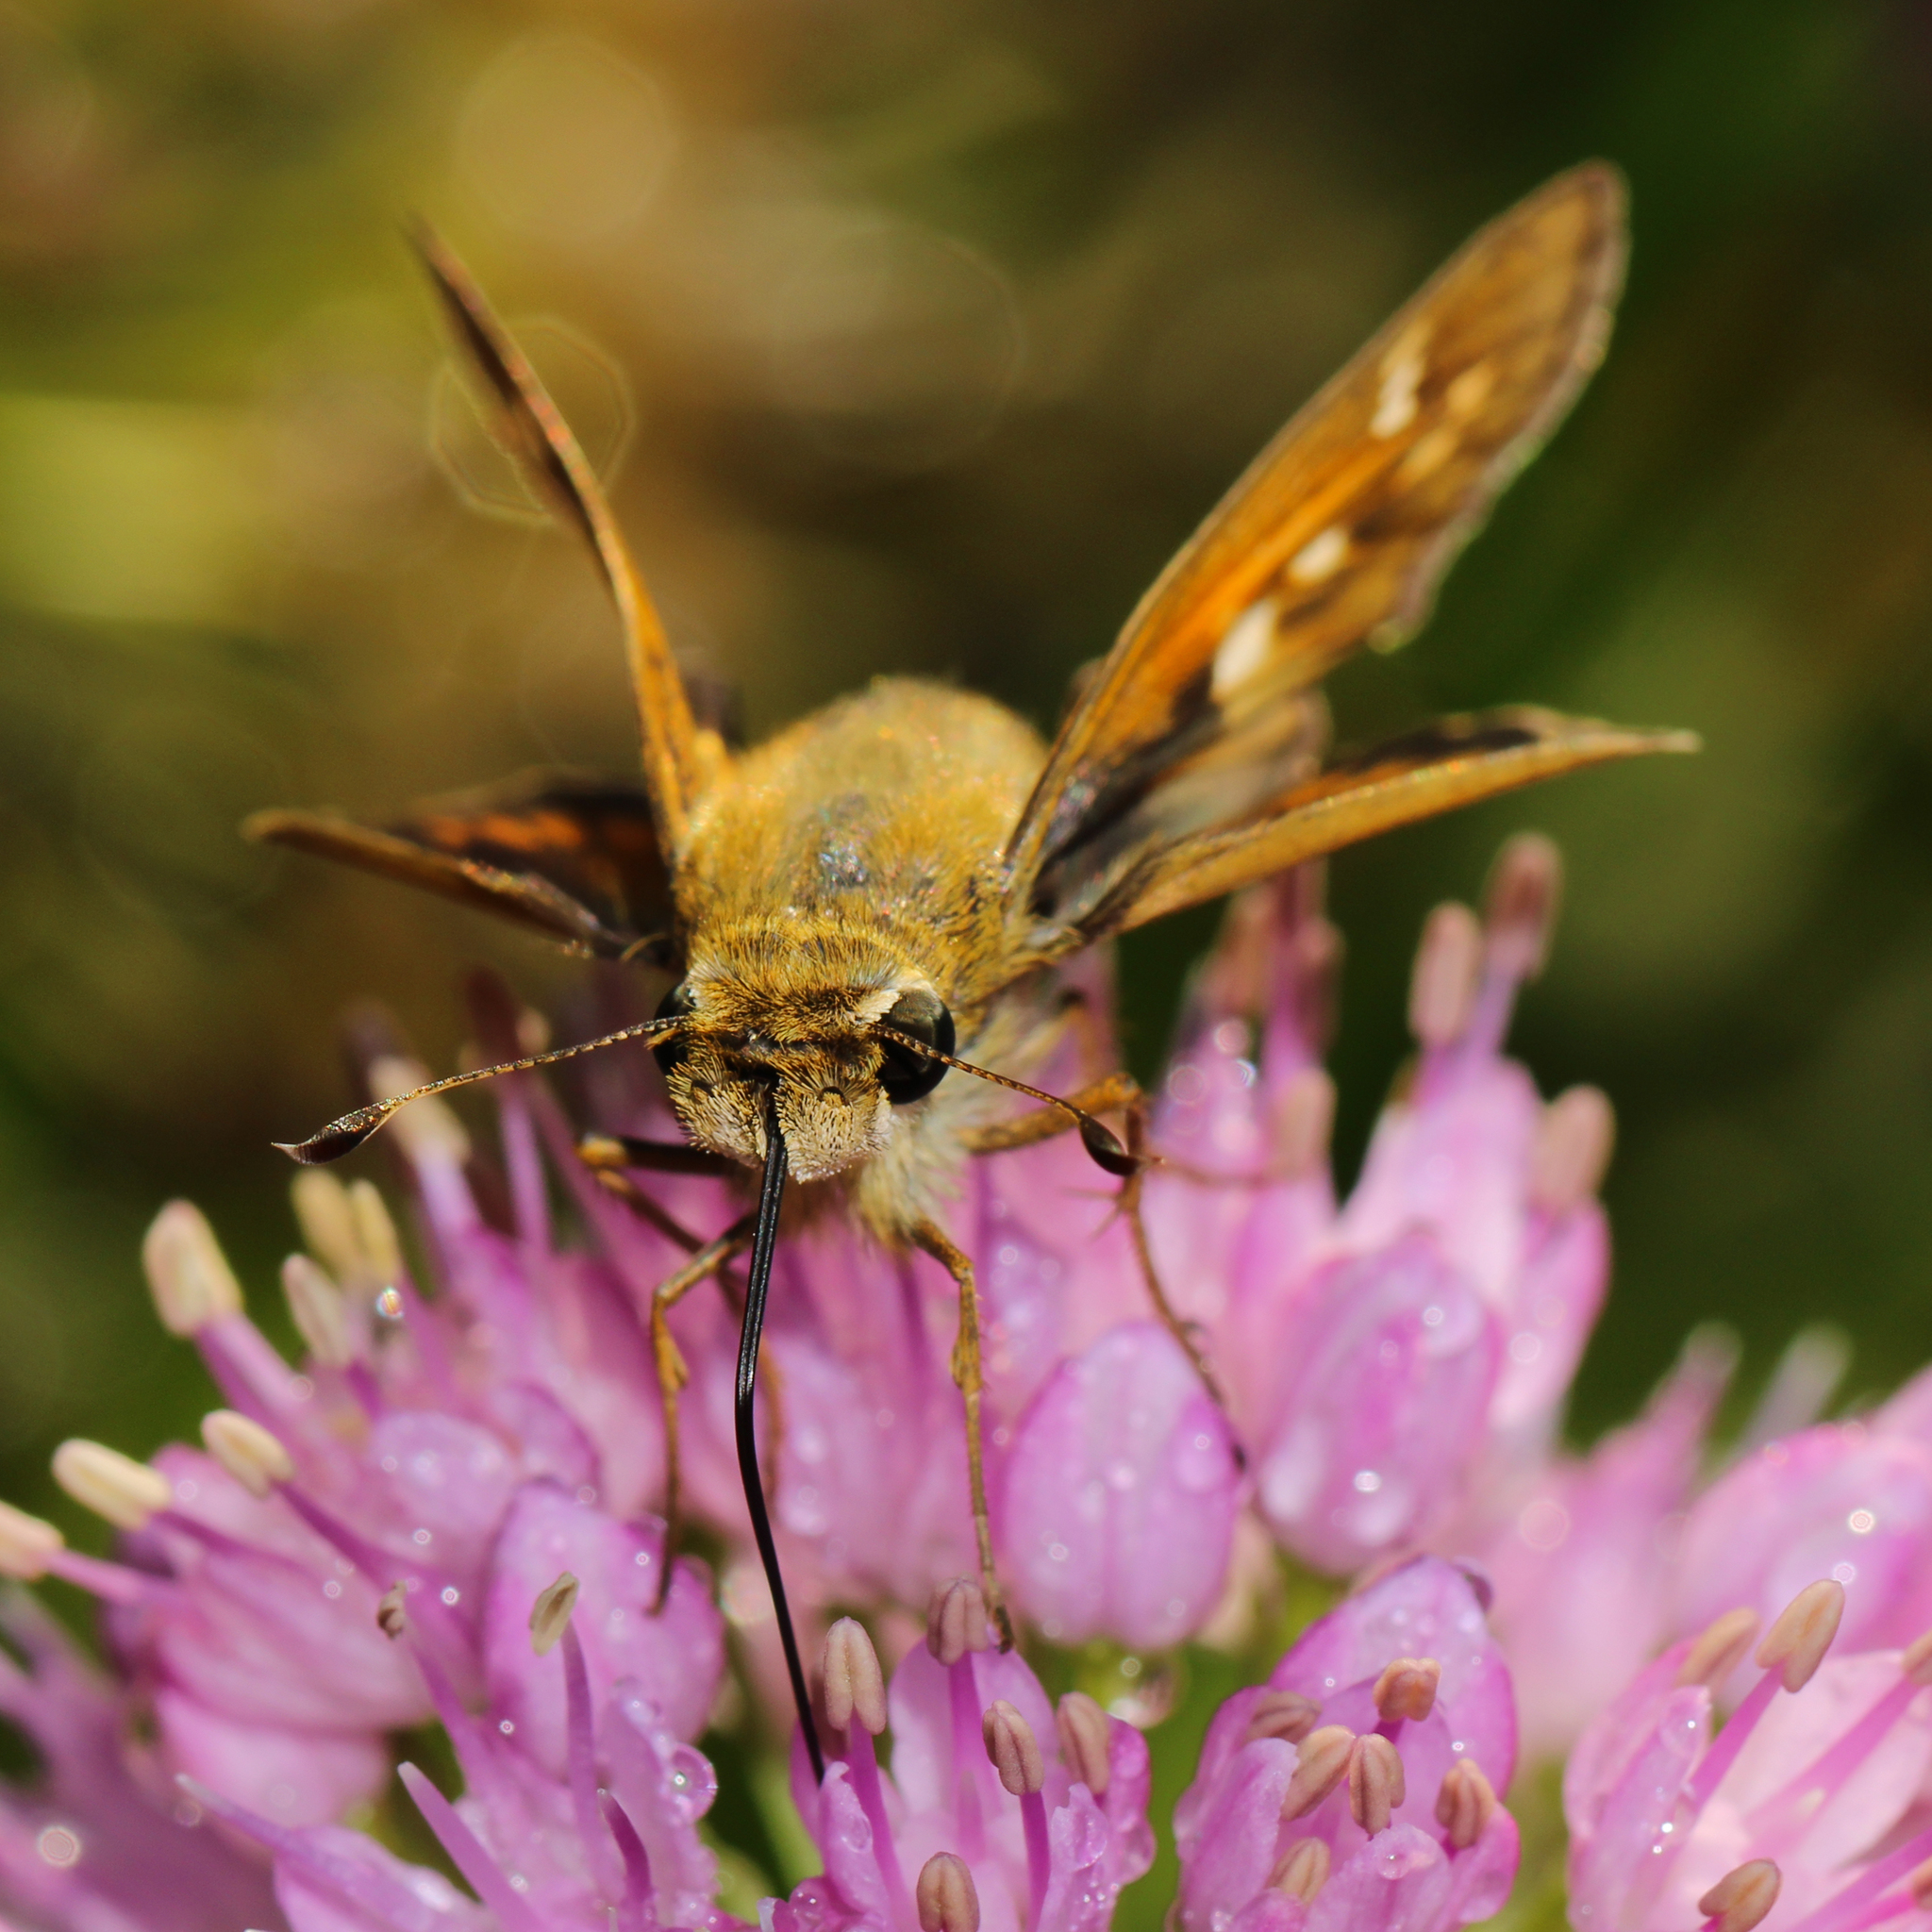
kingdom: Animalia
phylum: Arthropoda
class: Insecta
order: Lepidoptera
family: Hesperiidae
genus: Atalopedes
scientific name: Atalopedes
